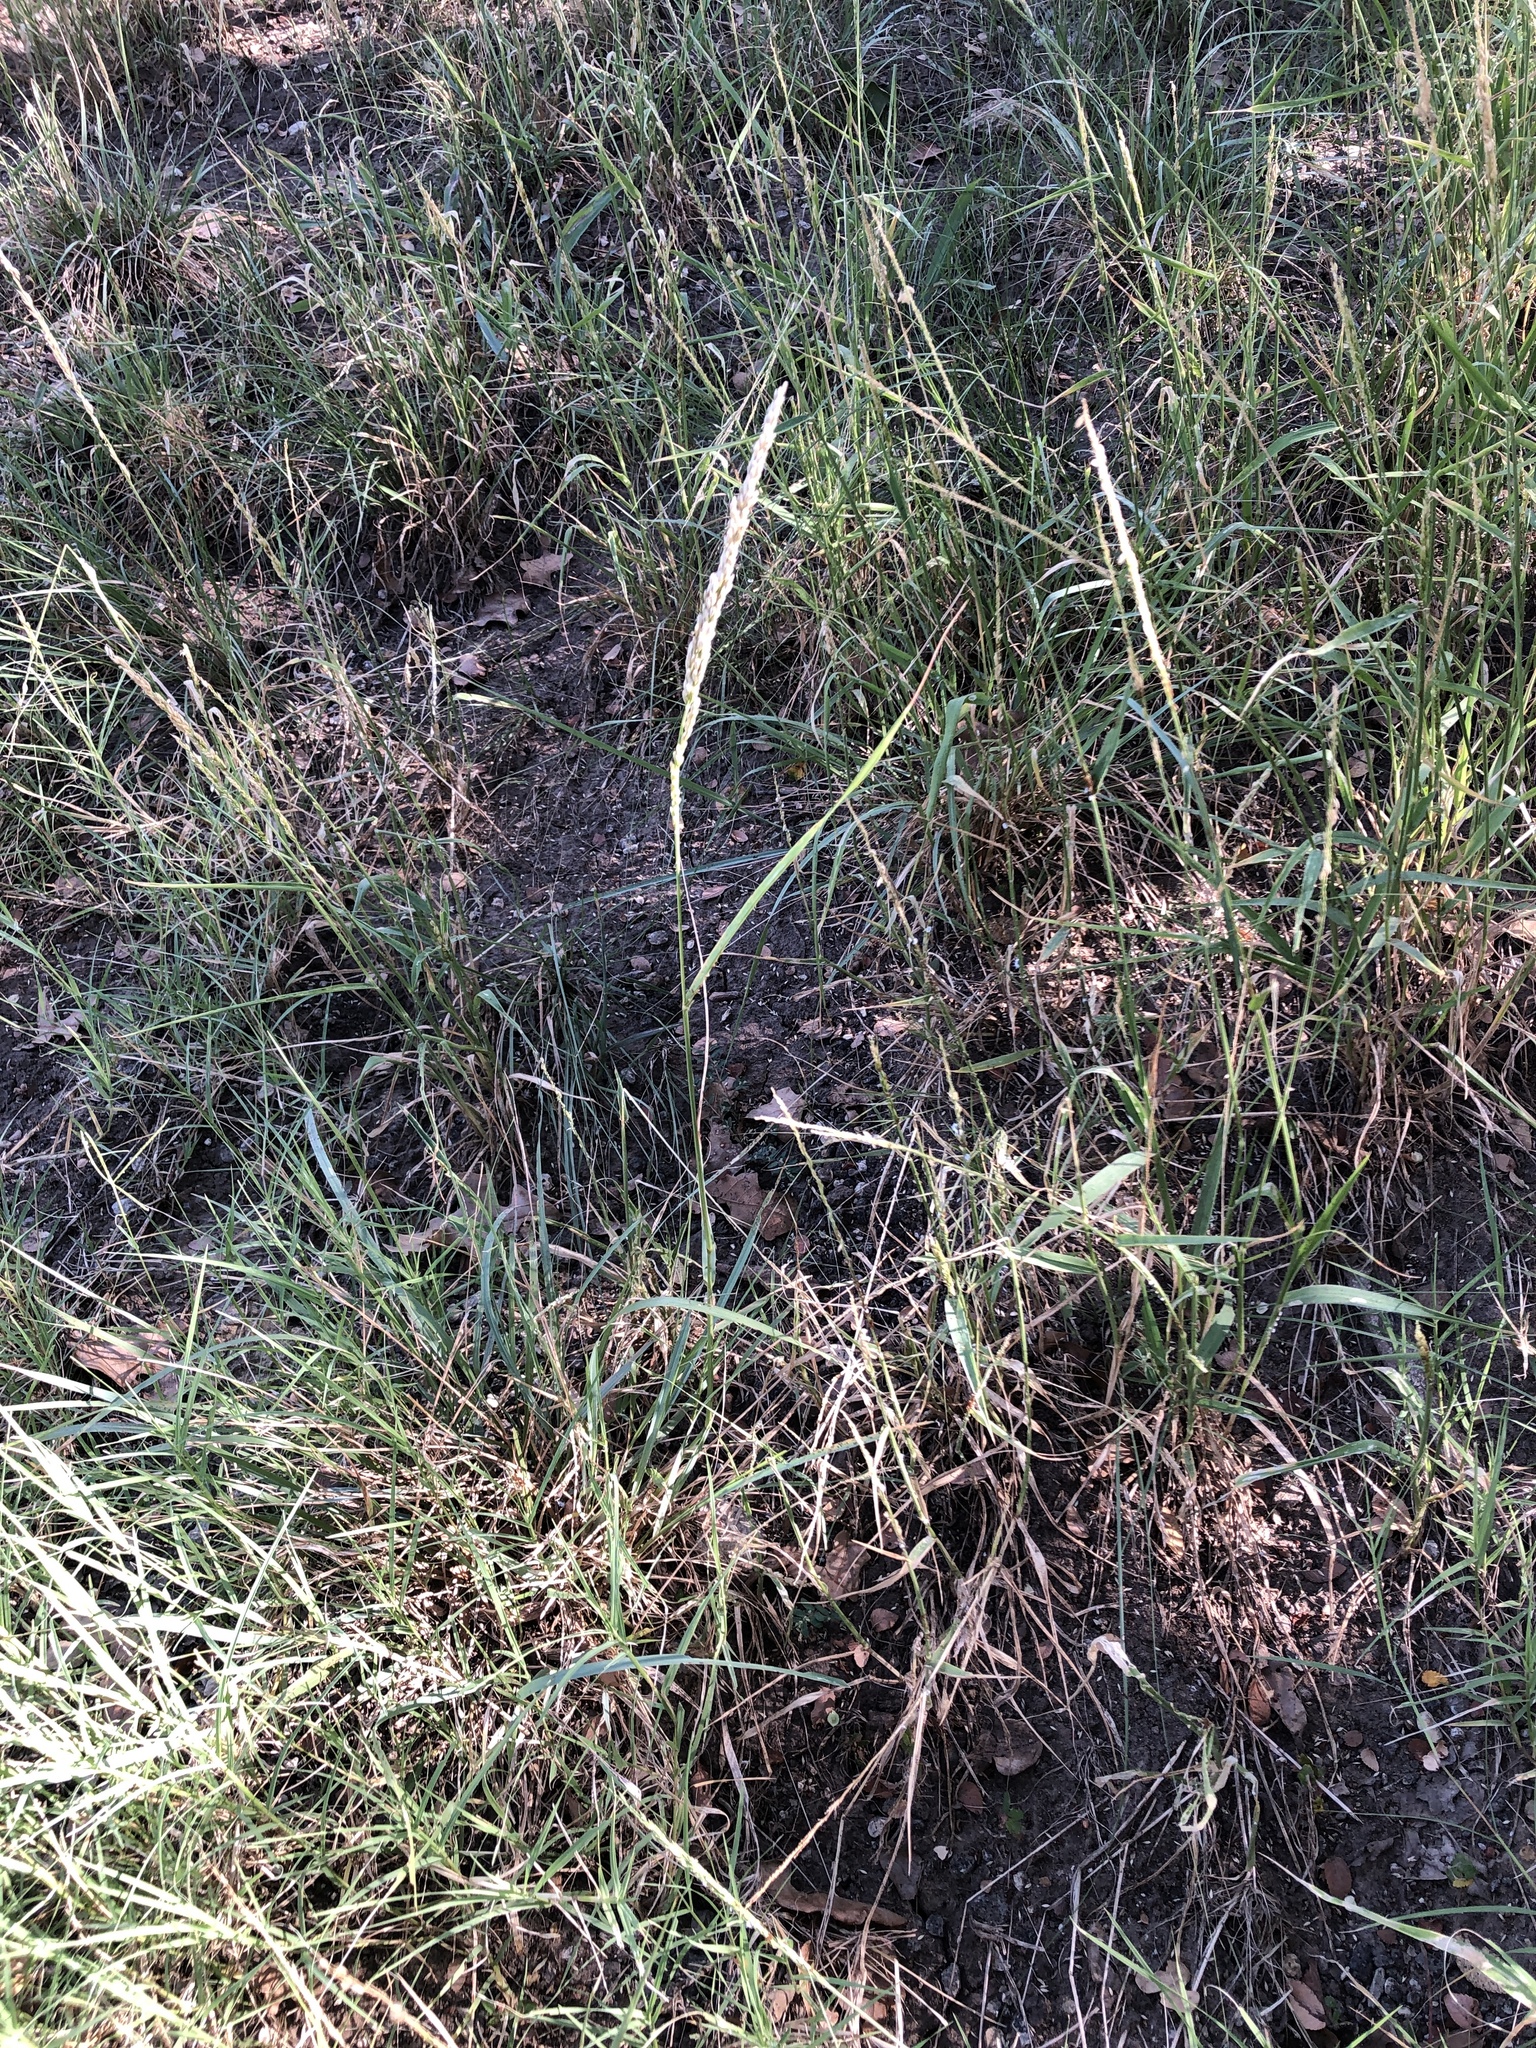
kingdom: Plantae
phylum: Tracheophyta
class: Liliopsida
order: Poales
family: Poaceae
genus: Tridens
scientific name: Tridens albescens
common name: White tridens
